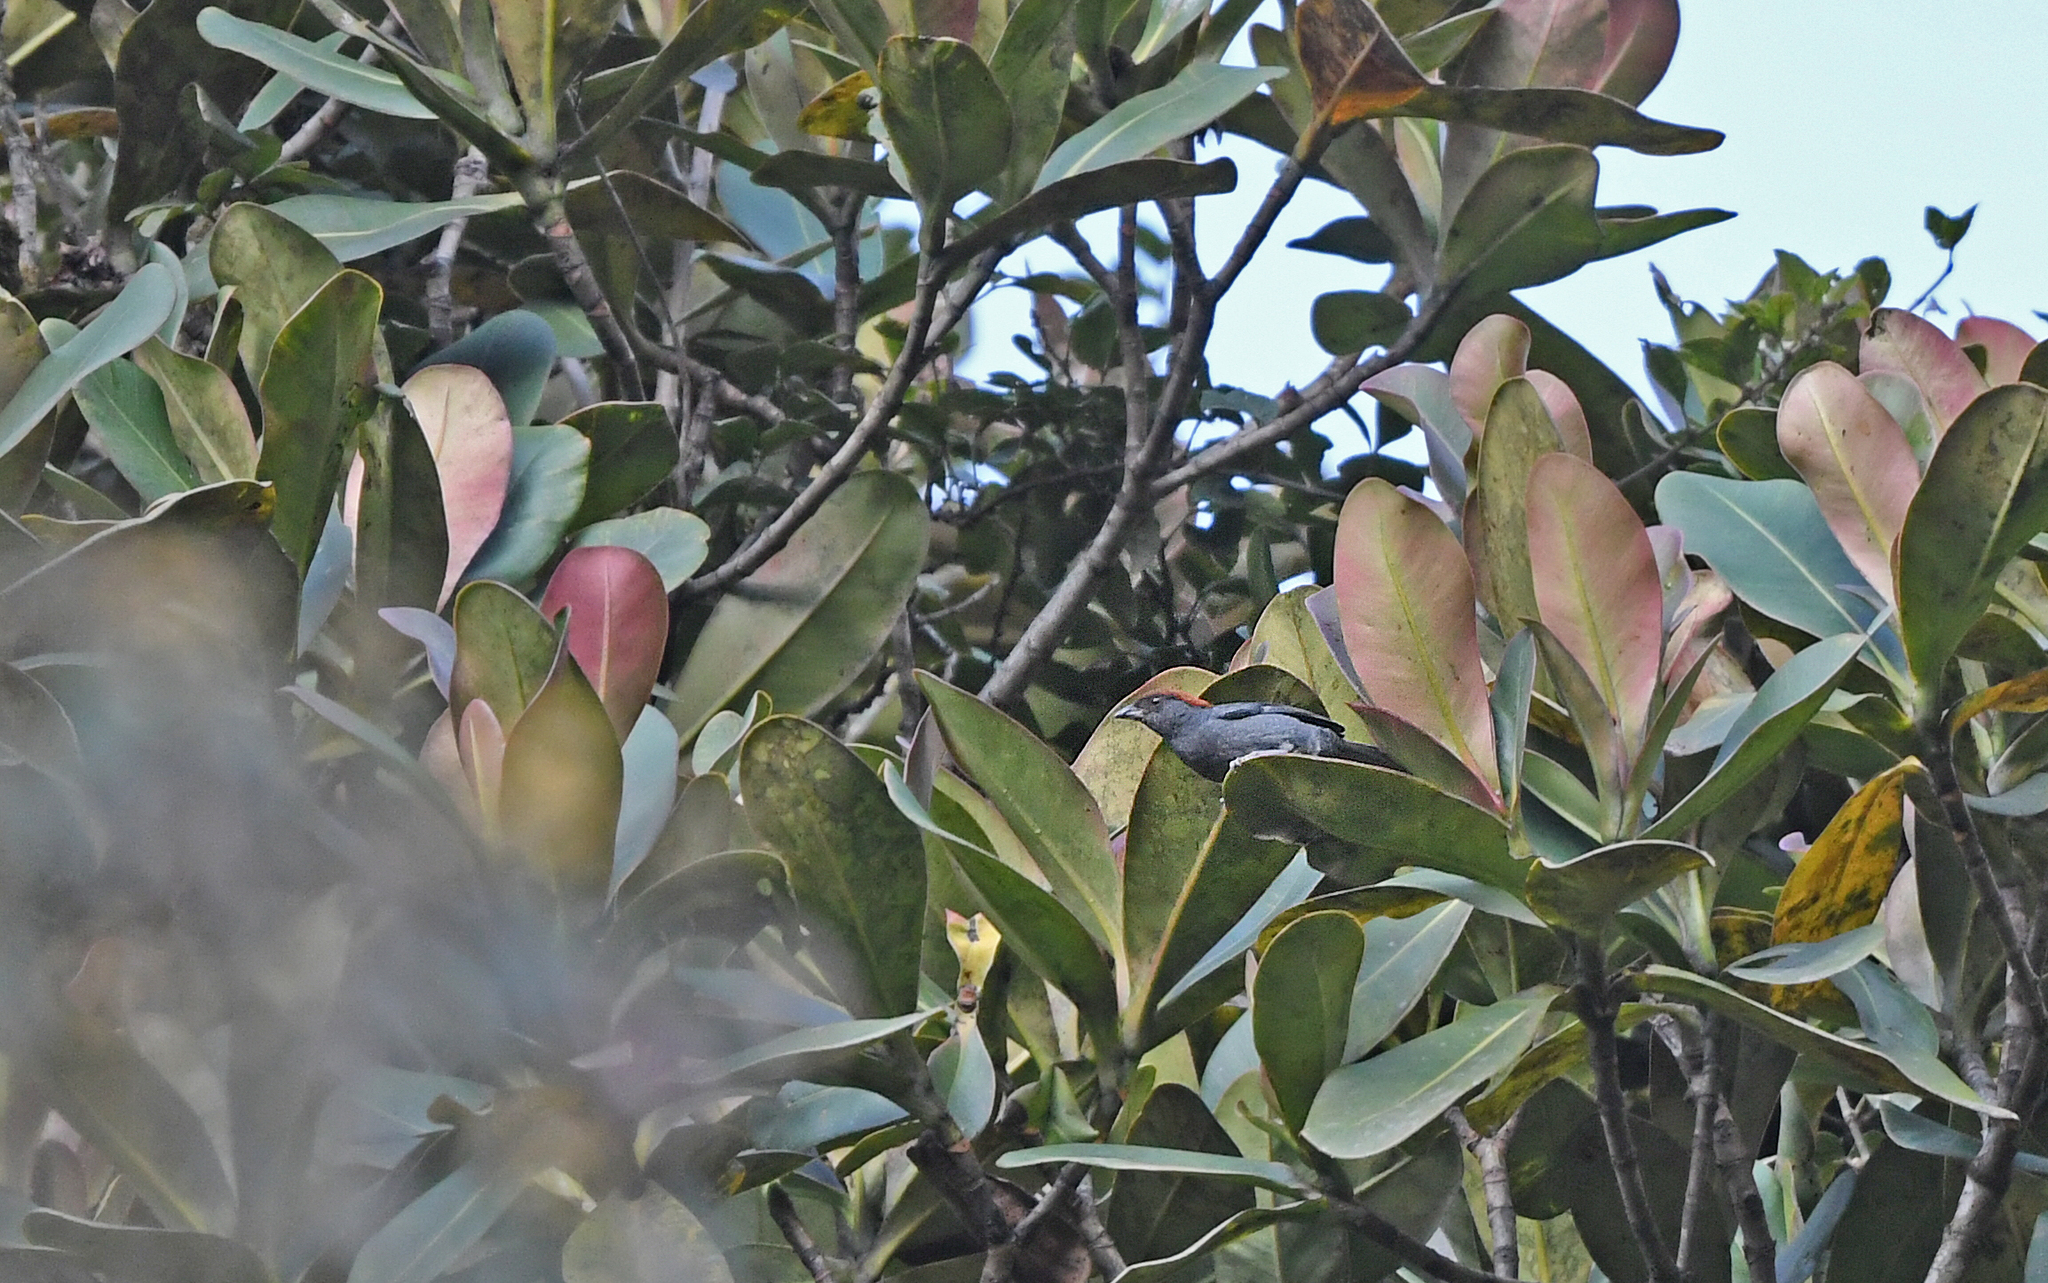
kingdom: Animalia
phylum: Chordata
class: Aves
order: Passeriformes
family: Thraupidae
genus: Creurgops
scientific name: Creurgops dentatus
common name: Slaty tanager
